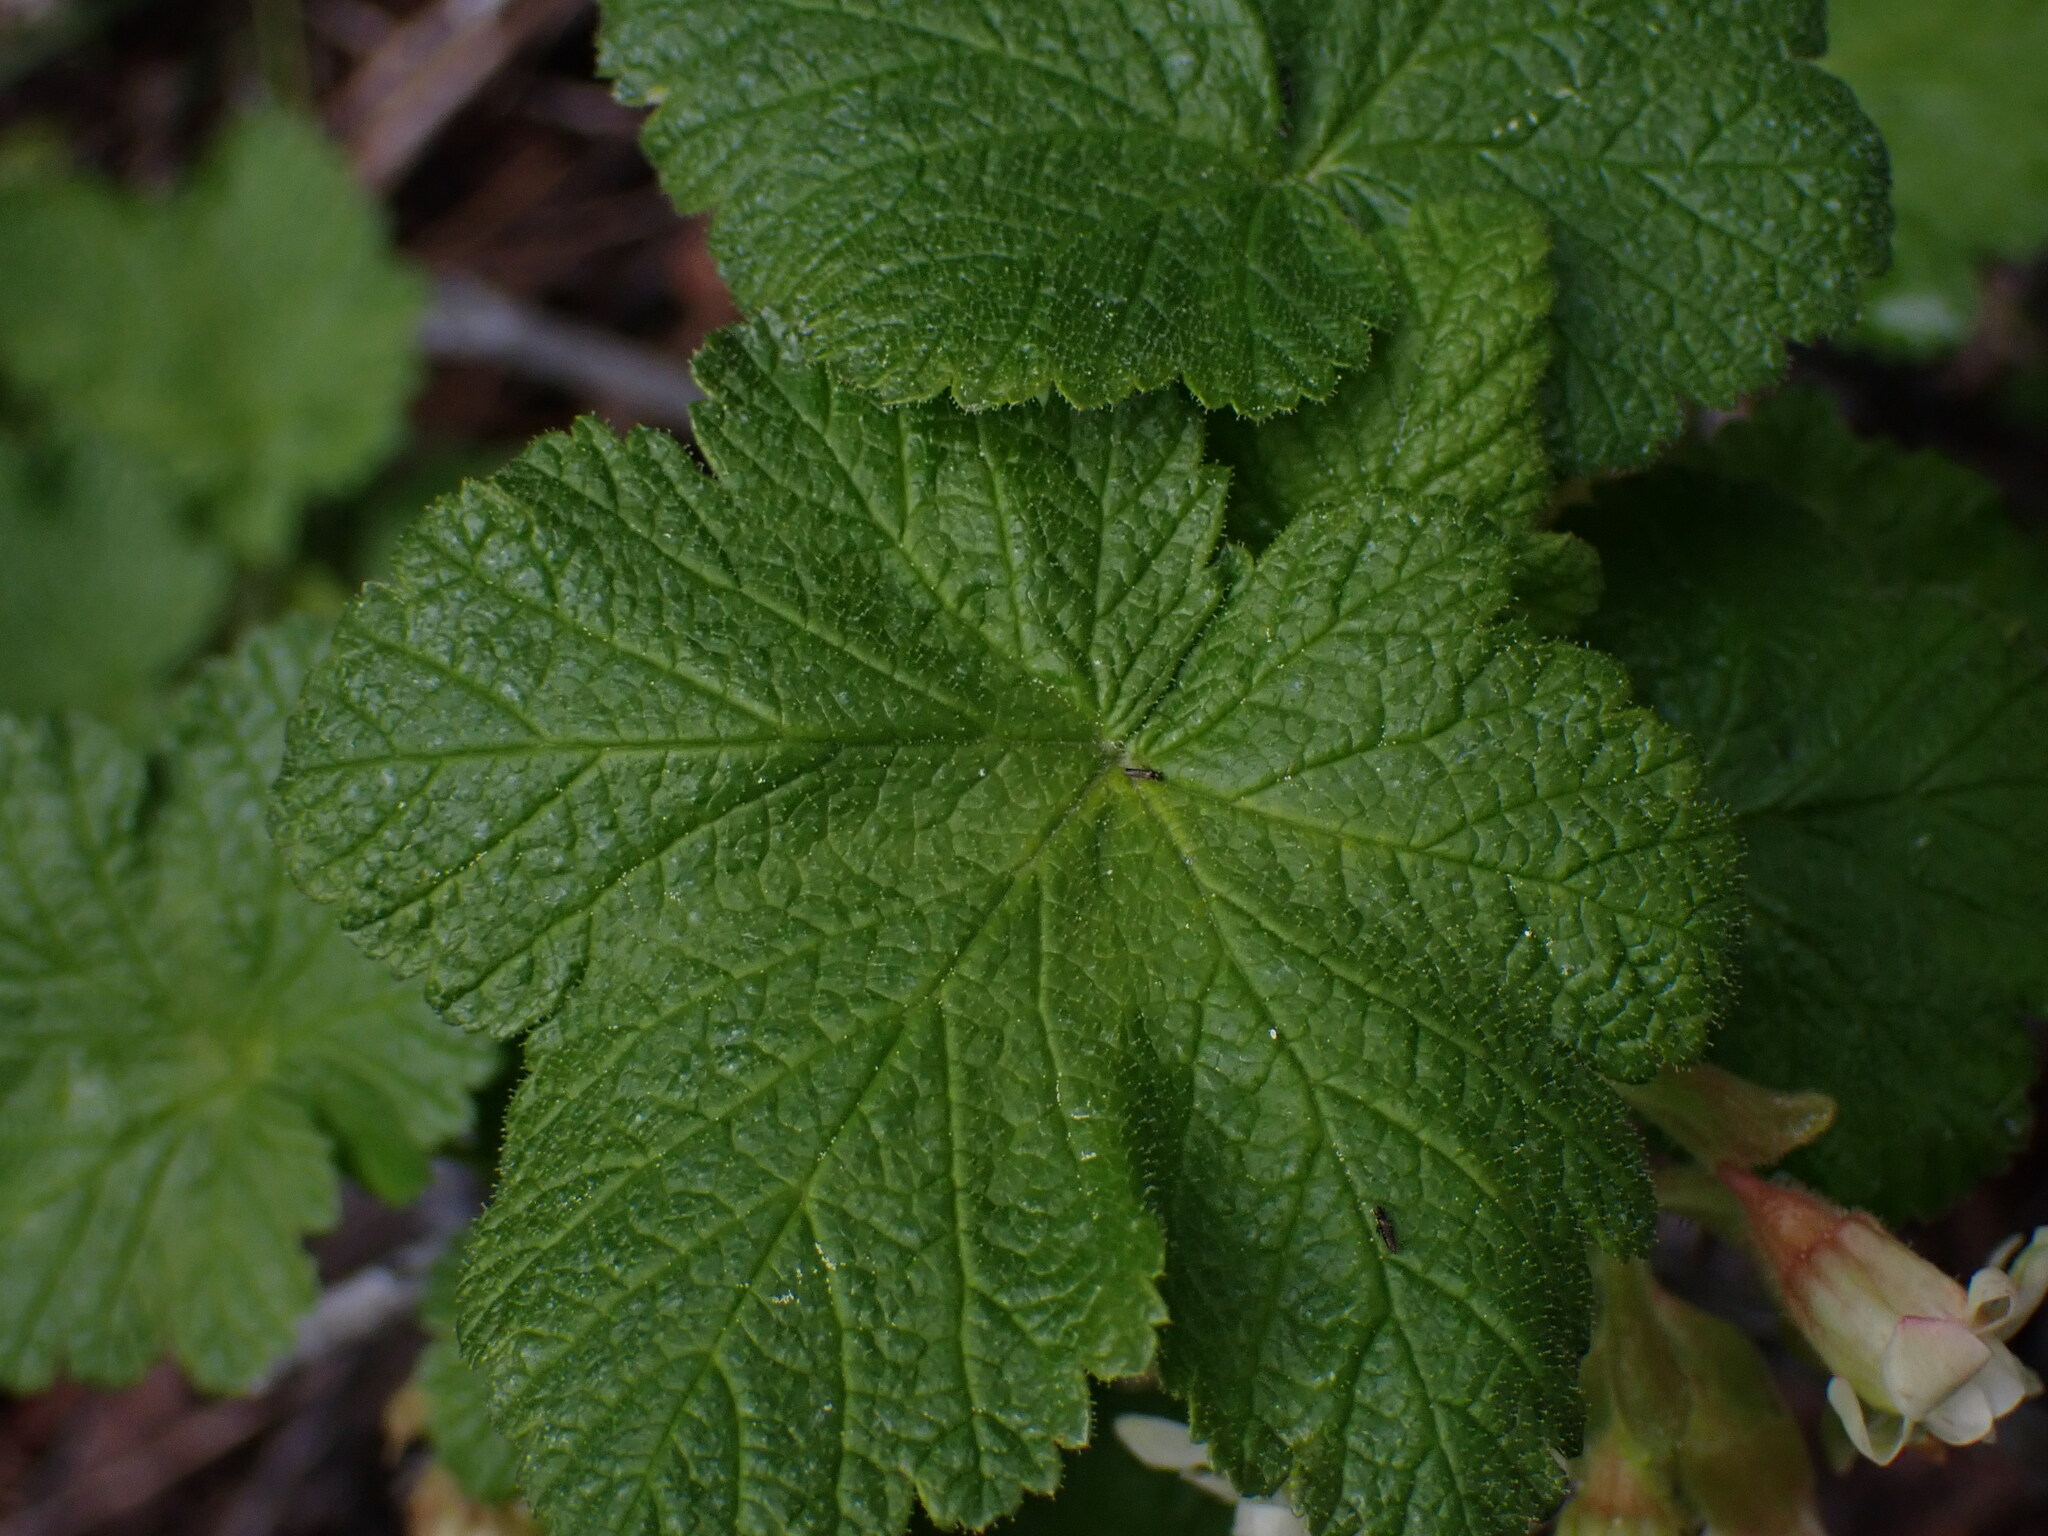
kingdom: Plantae
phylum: Tracheophyta
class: Magnoliopsida
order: Saxifragales
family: Grossulariaceae
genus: Ribes
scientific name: Ribes viscosissimum
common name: Sticky currant
